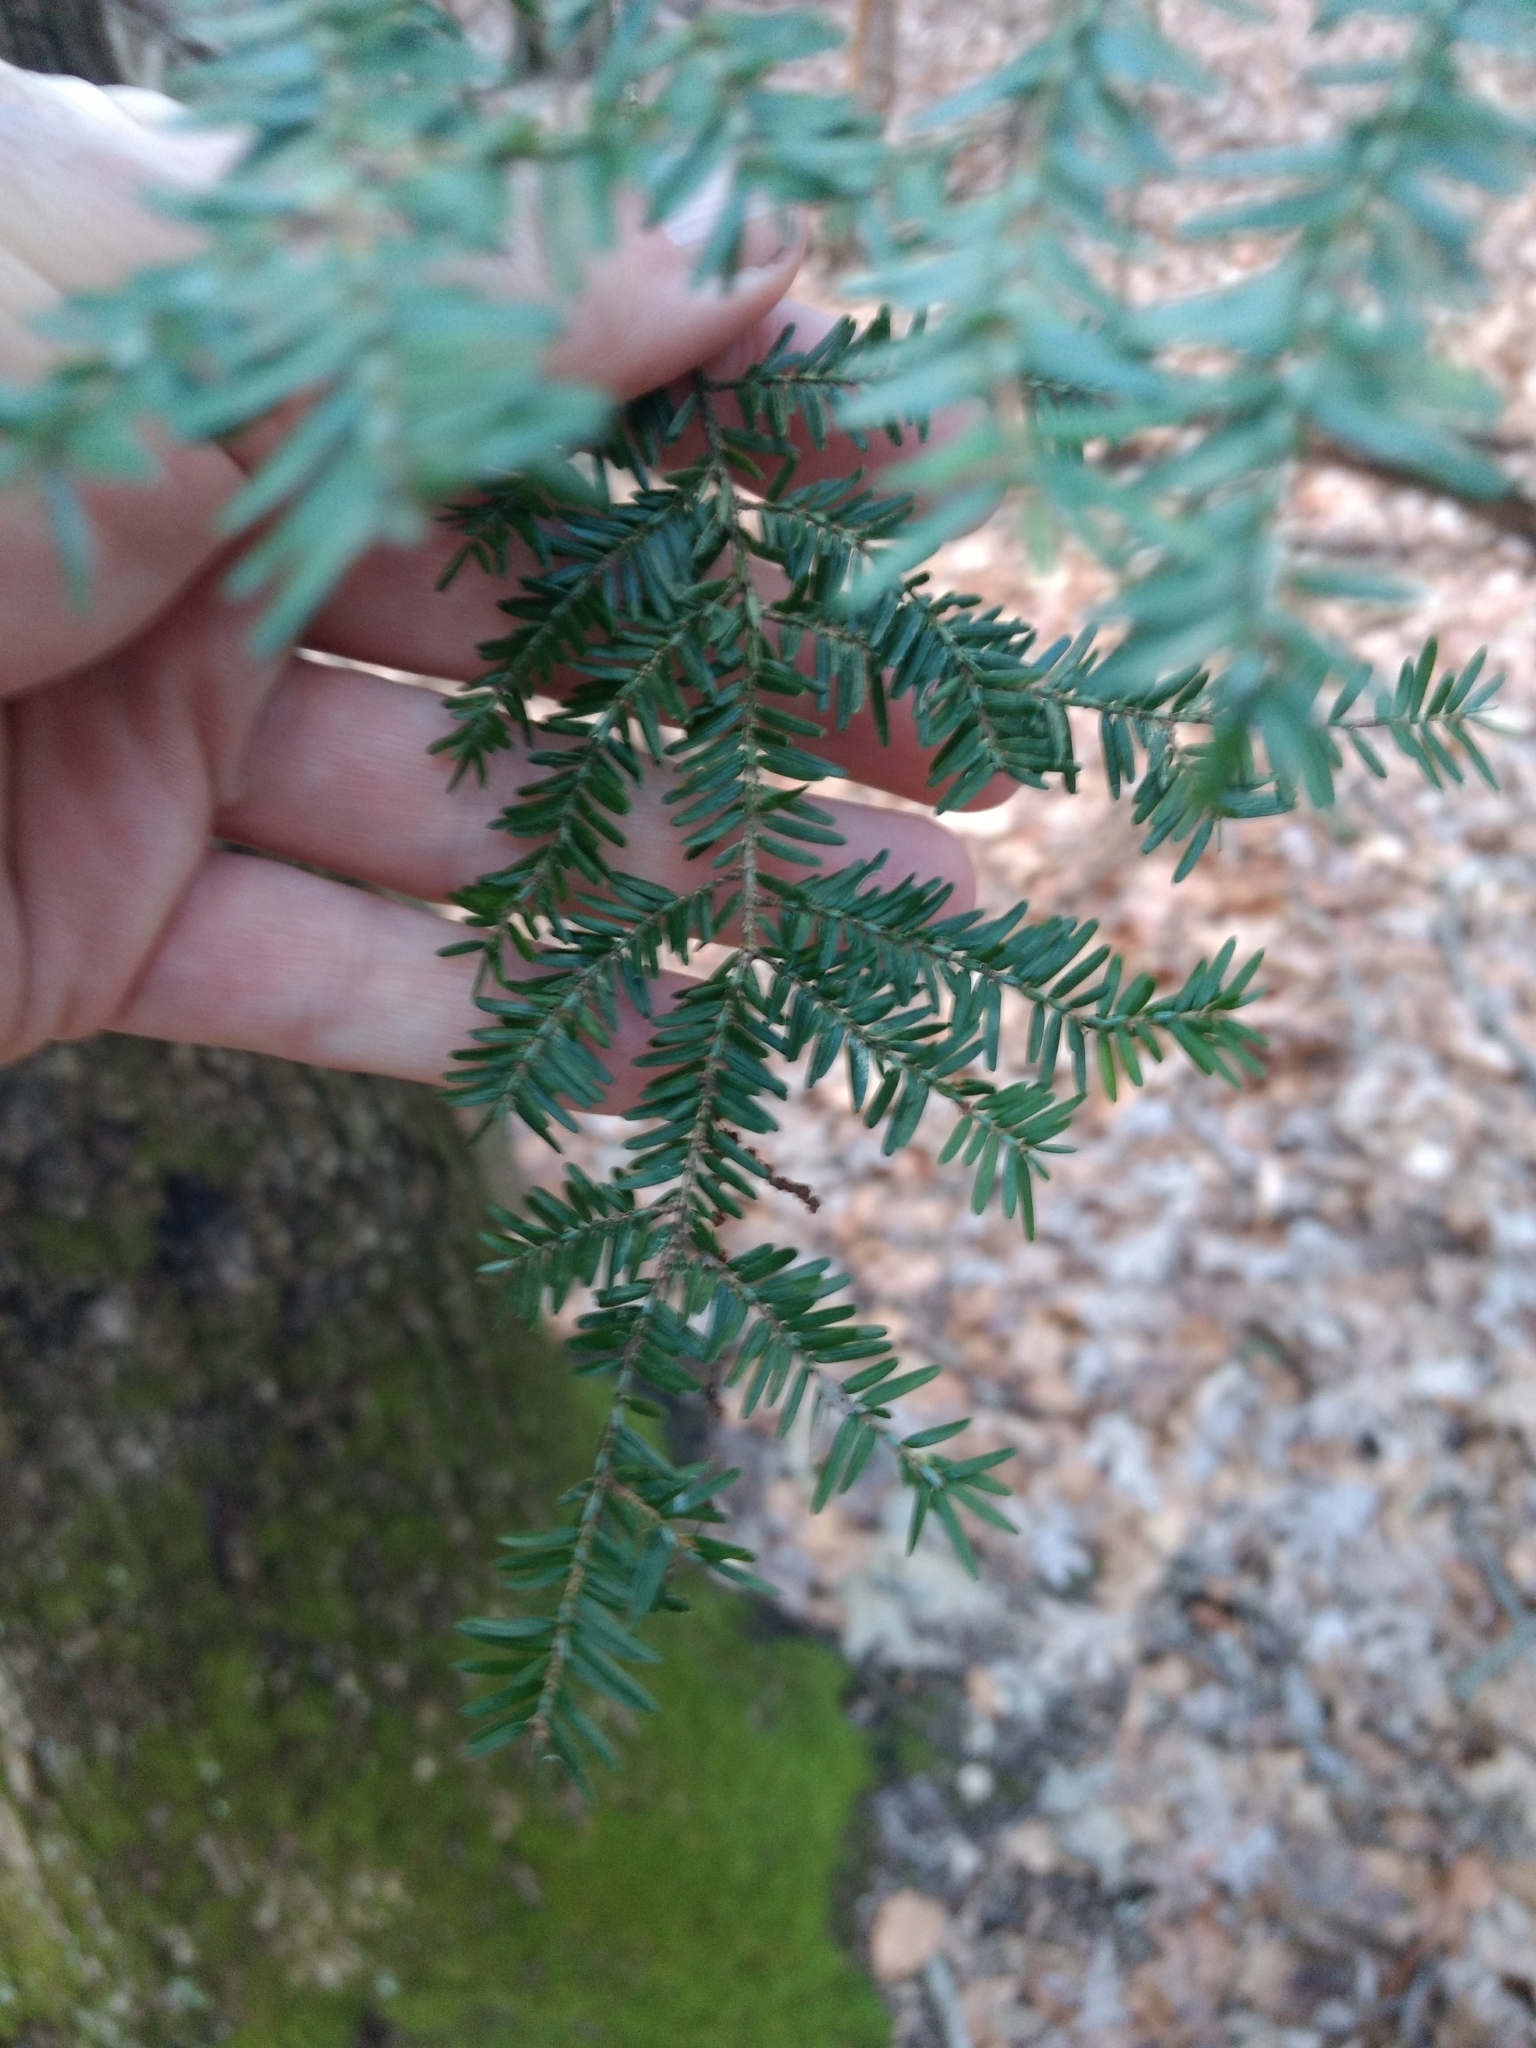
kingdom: Plantae
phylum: Tracheophyta
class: Pinopsida
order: Pinales
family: Pinaceae
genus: Tsuga
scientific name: Tsuga canadensis
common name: Eastern hemlock
